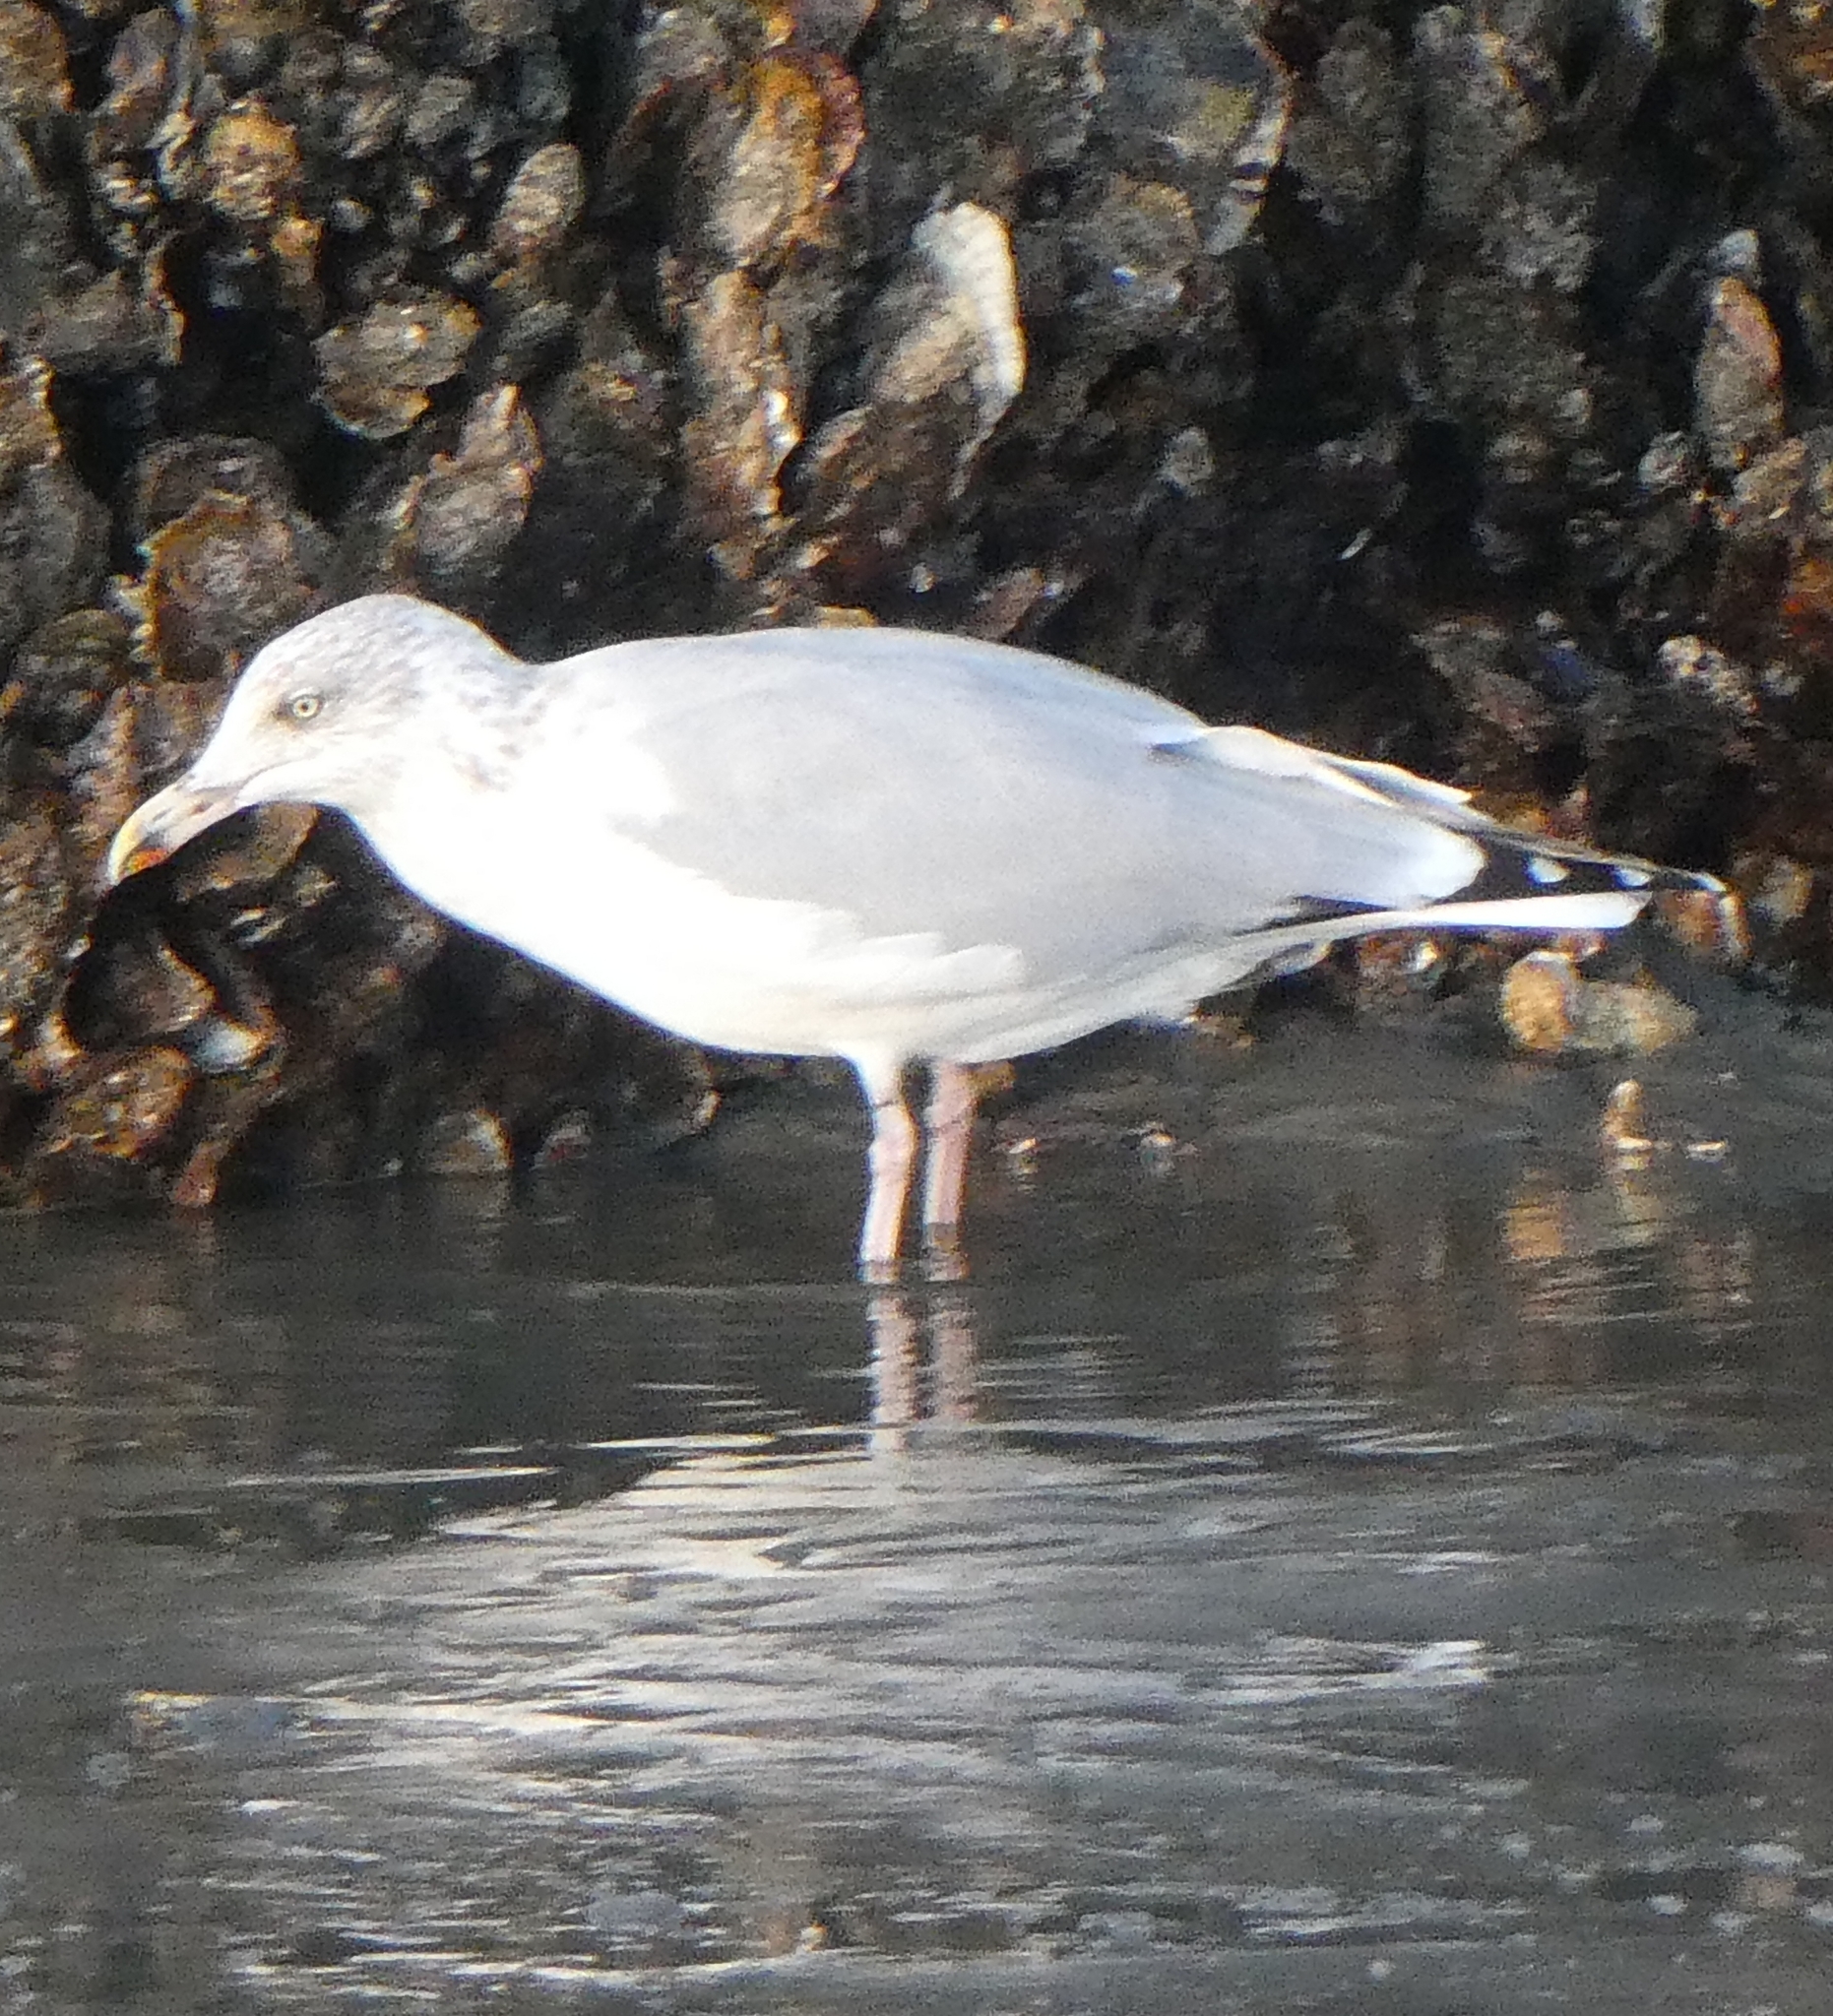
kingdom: Animalia
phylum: Chordata
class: Aves
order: Charadriiformes
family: Laridae
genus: Larus
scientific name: Larus argentatus
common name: Herring gull
